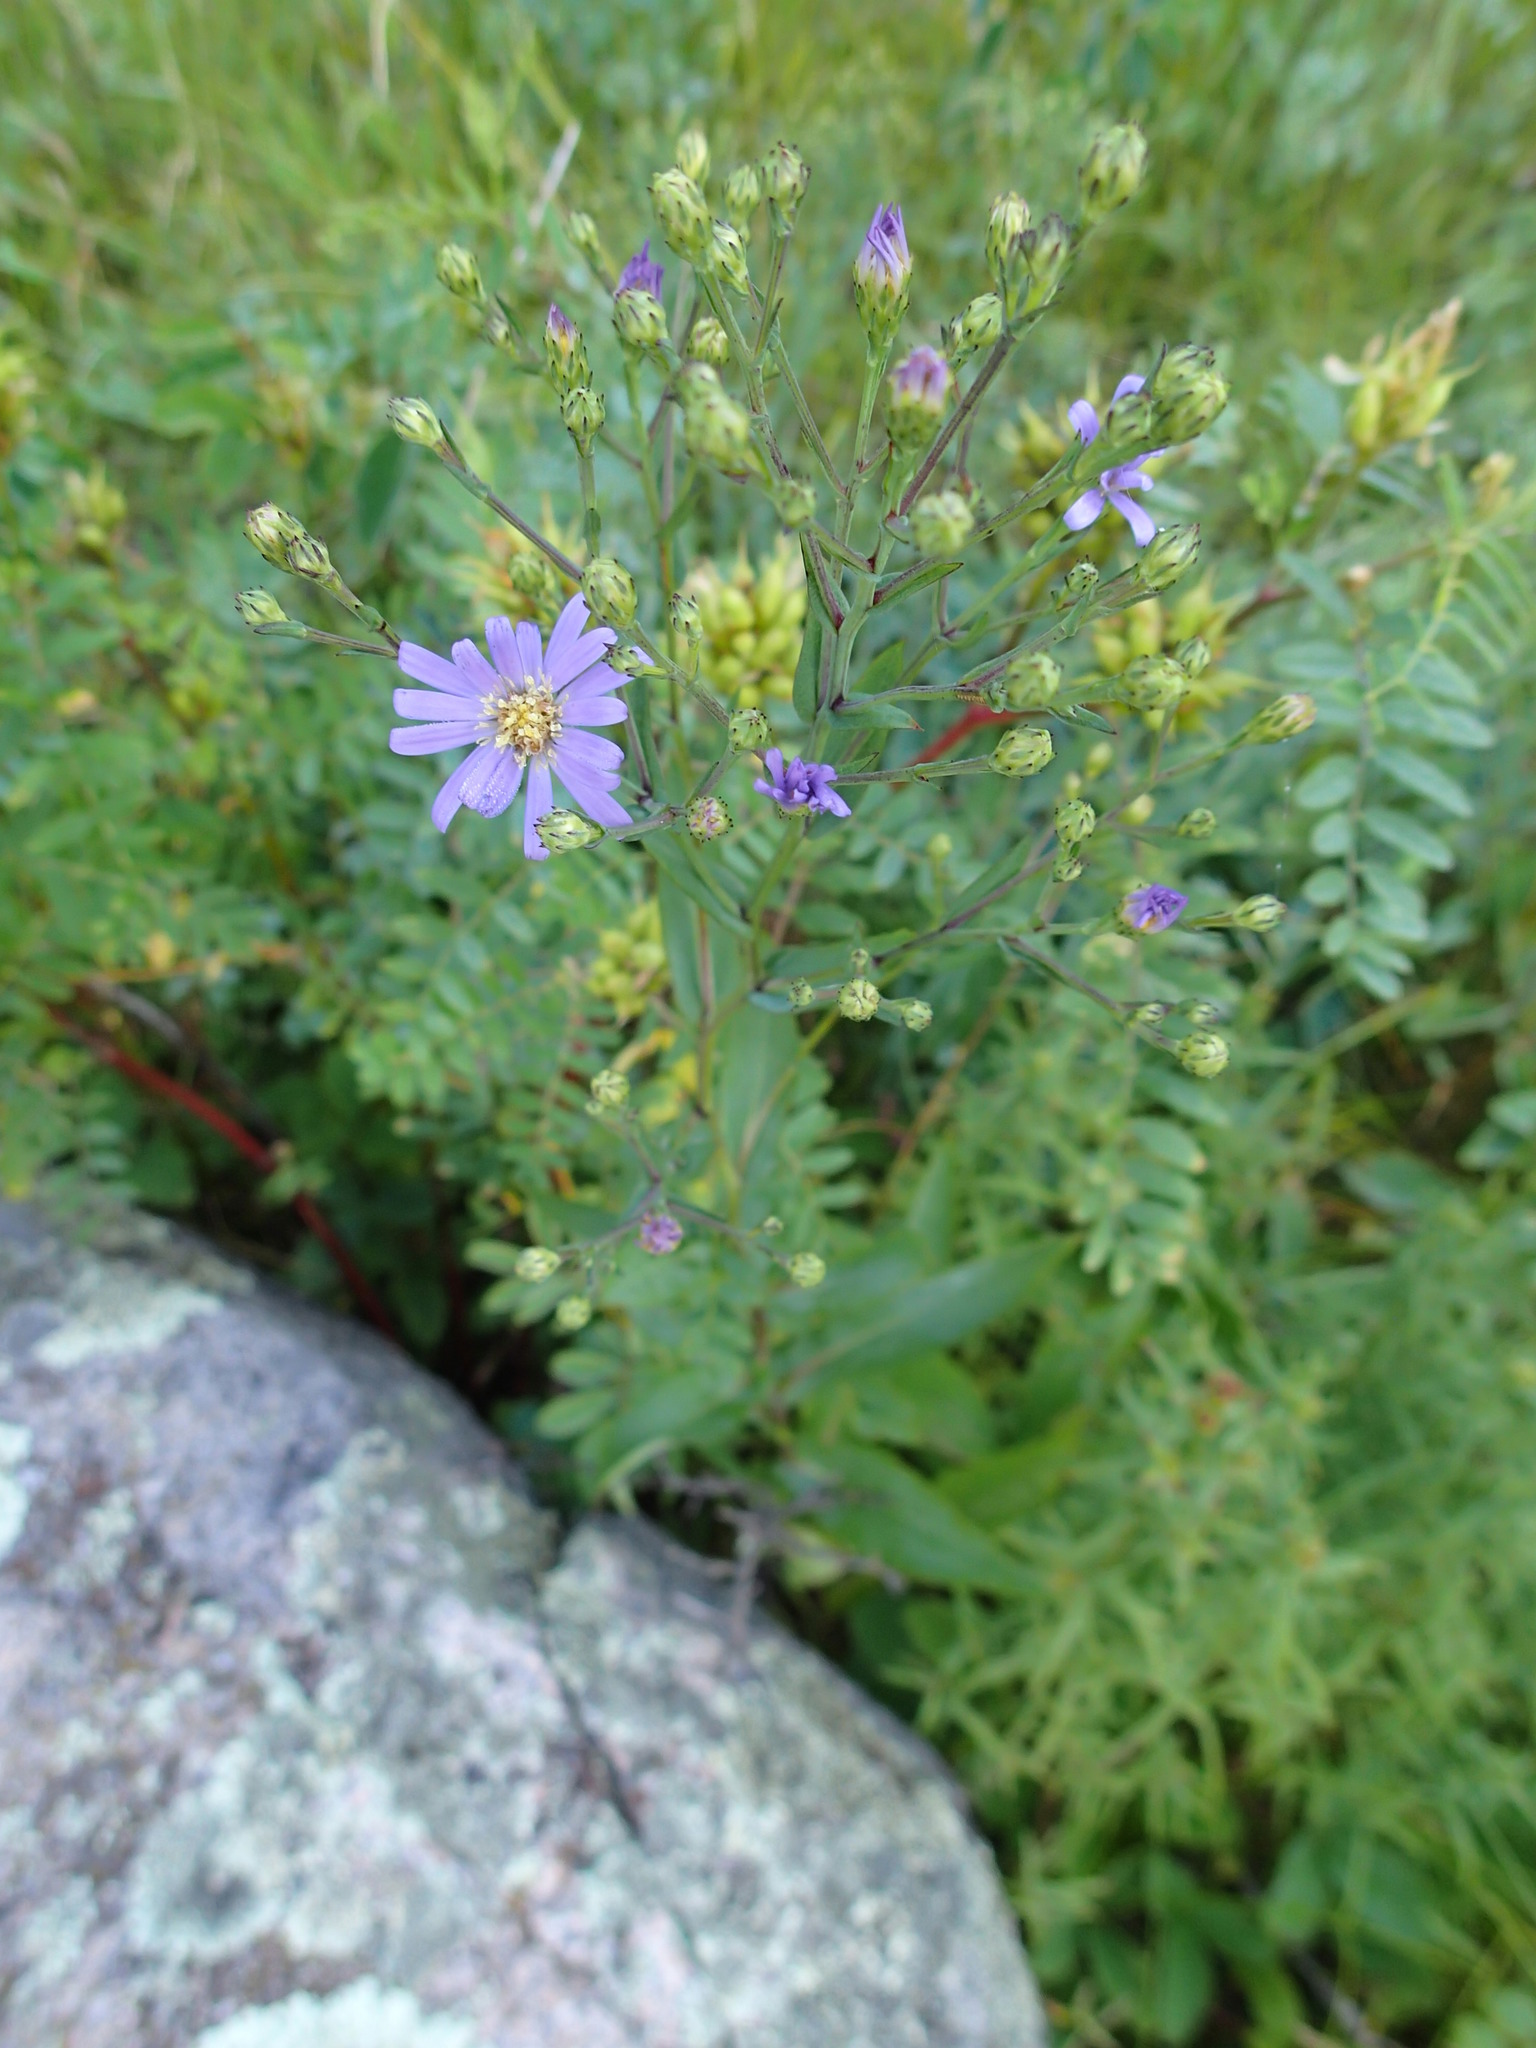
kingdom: Plantae
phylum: Tracheophyta
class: Magnoliopsida
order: Asterales
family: Asteraceae
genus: Symphyotrichum
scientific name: Symphyotrichum laeve
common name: Glaucous aster
